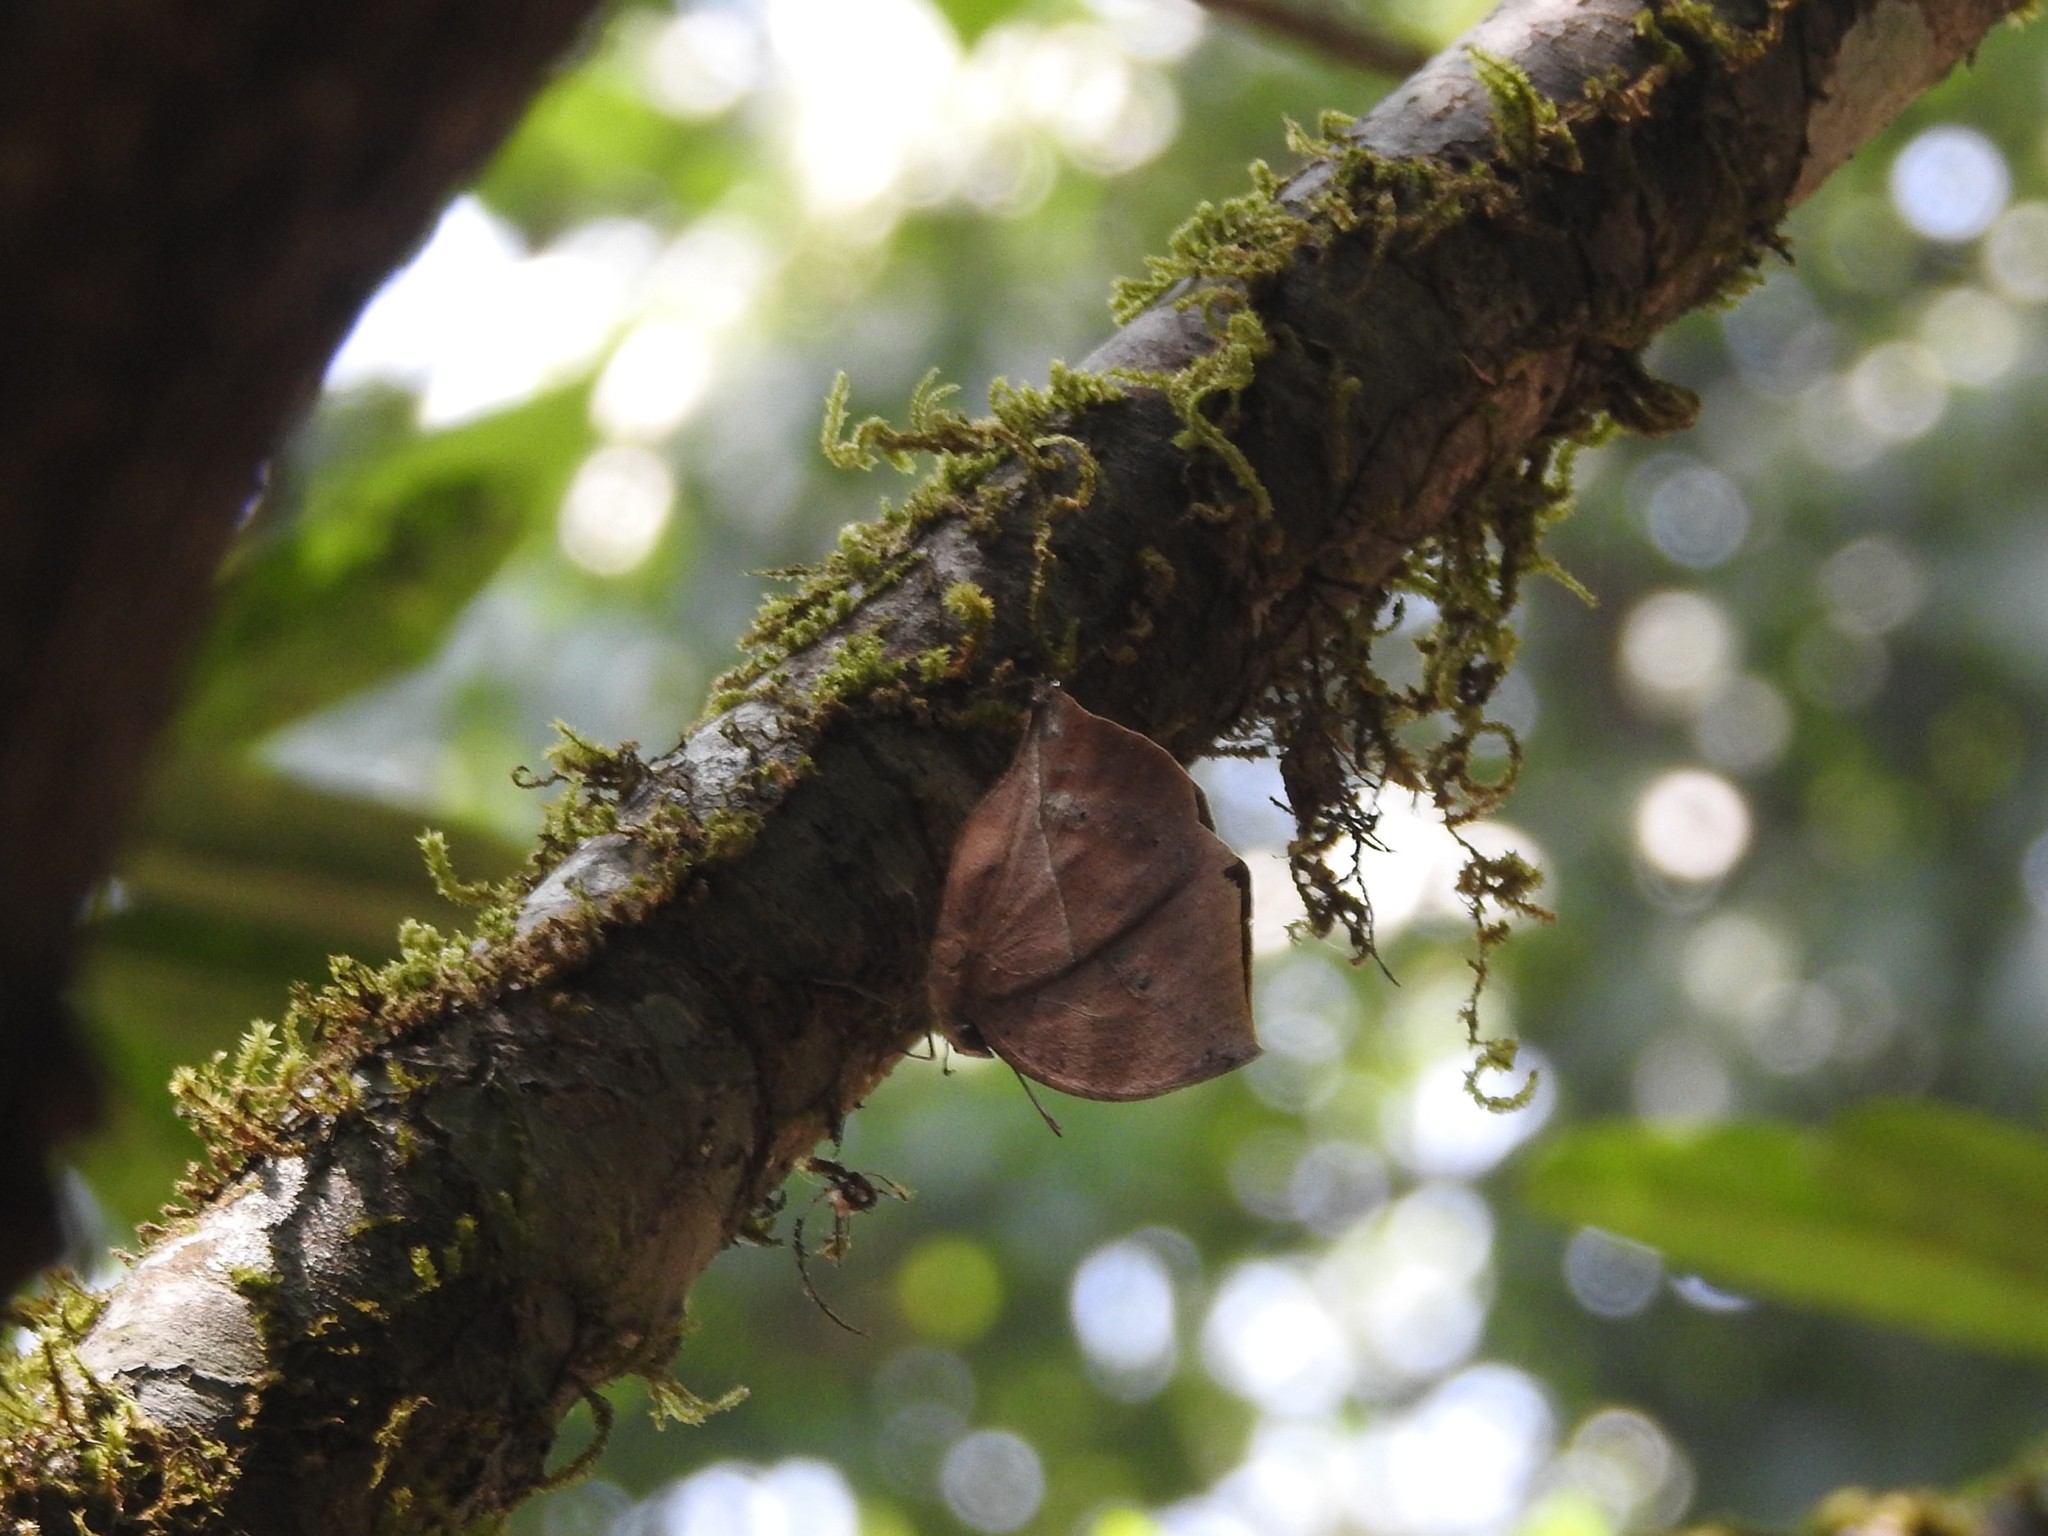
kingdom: Animalia
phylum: Arthropoda
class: Insecta
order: Lepidoptera
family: Nymphalidae
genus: Kallima
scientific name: Kallima horsfieldii
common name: Sahyadri blue oakleaf
